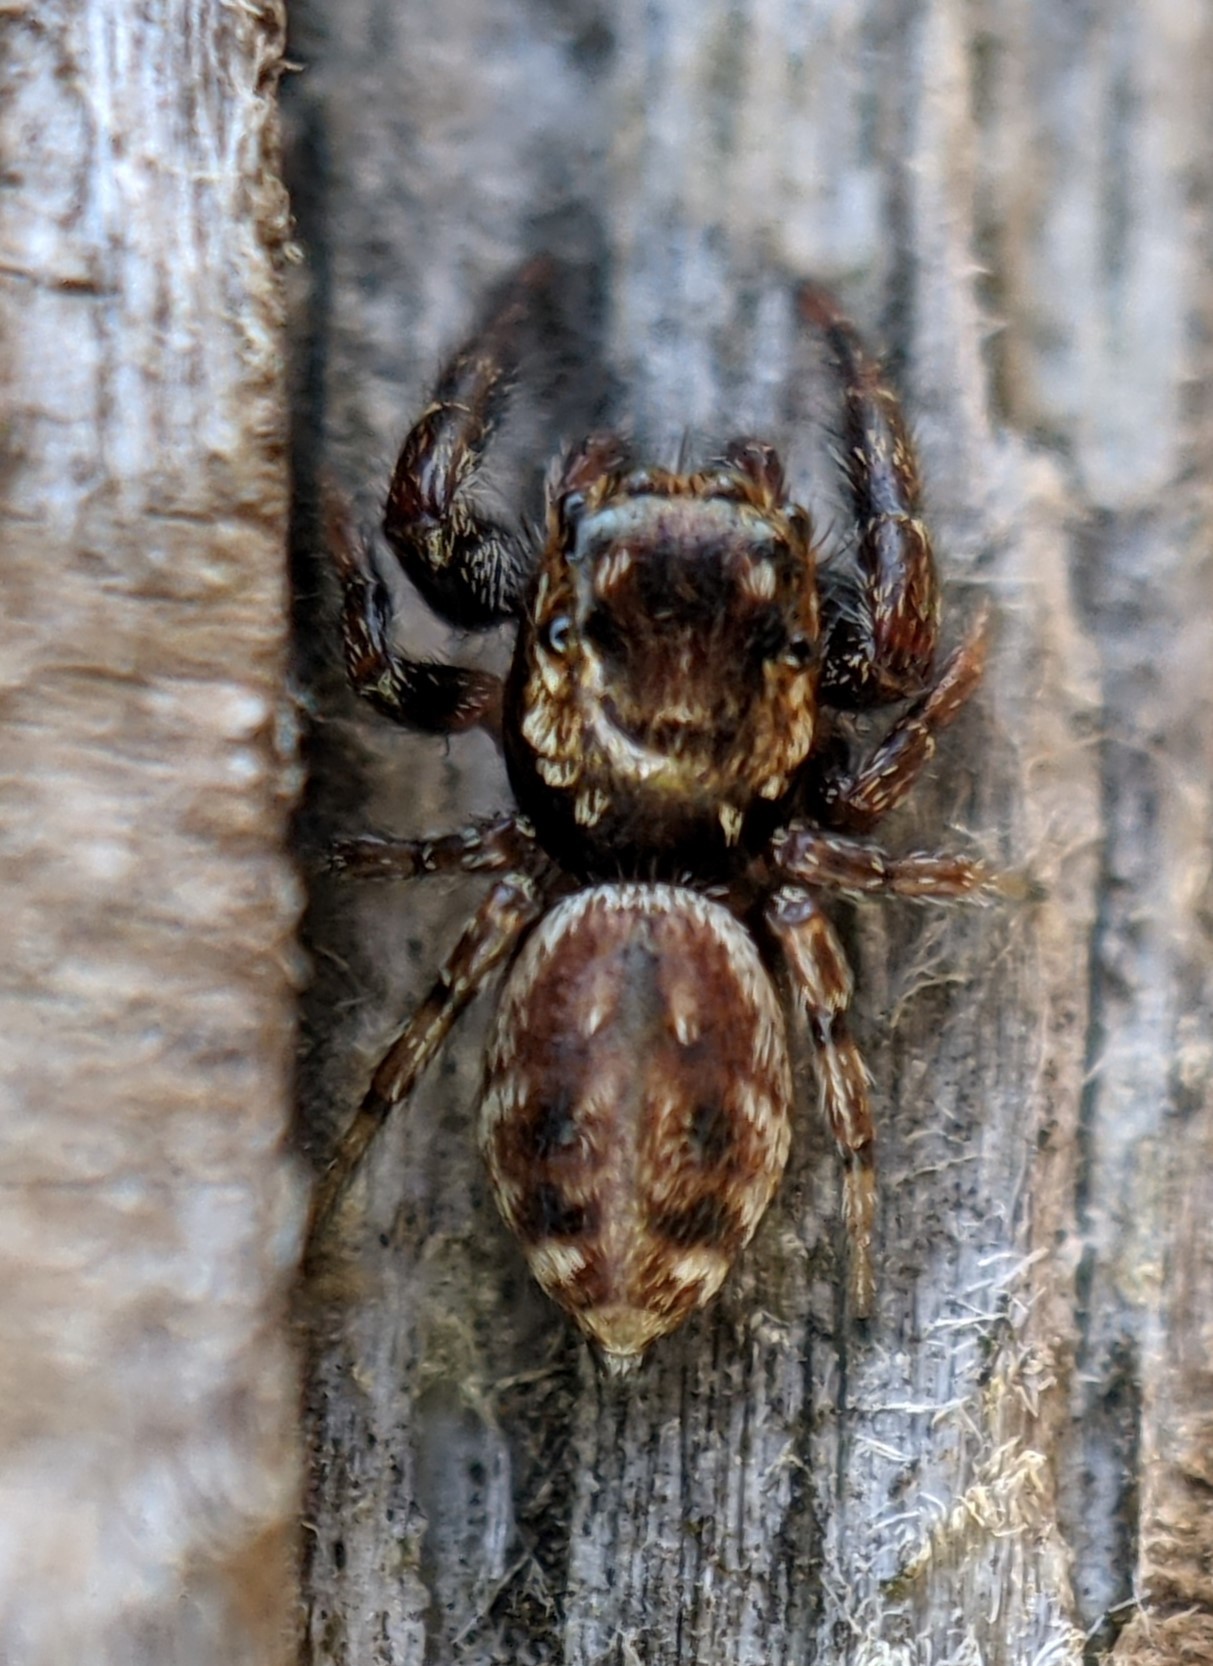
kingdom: Animalia
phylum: Arthropoda
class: Arachnida
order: Araneae
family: Salticidae
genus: Macaroeris
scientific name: Macaroeris nidicolens
